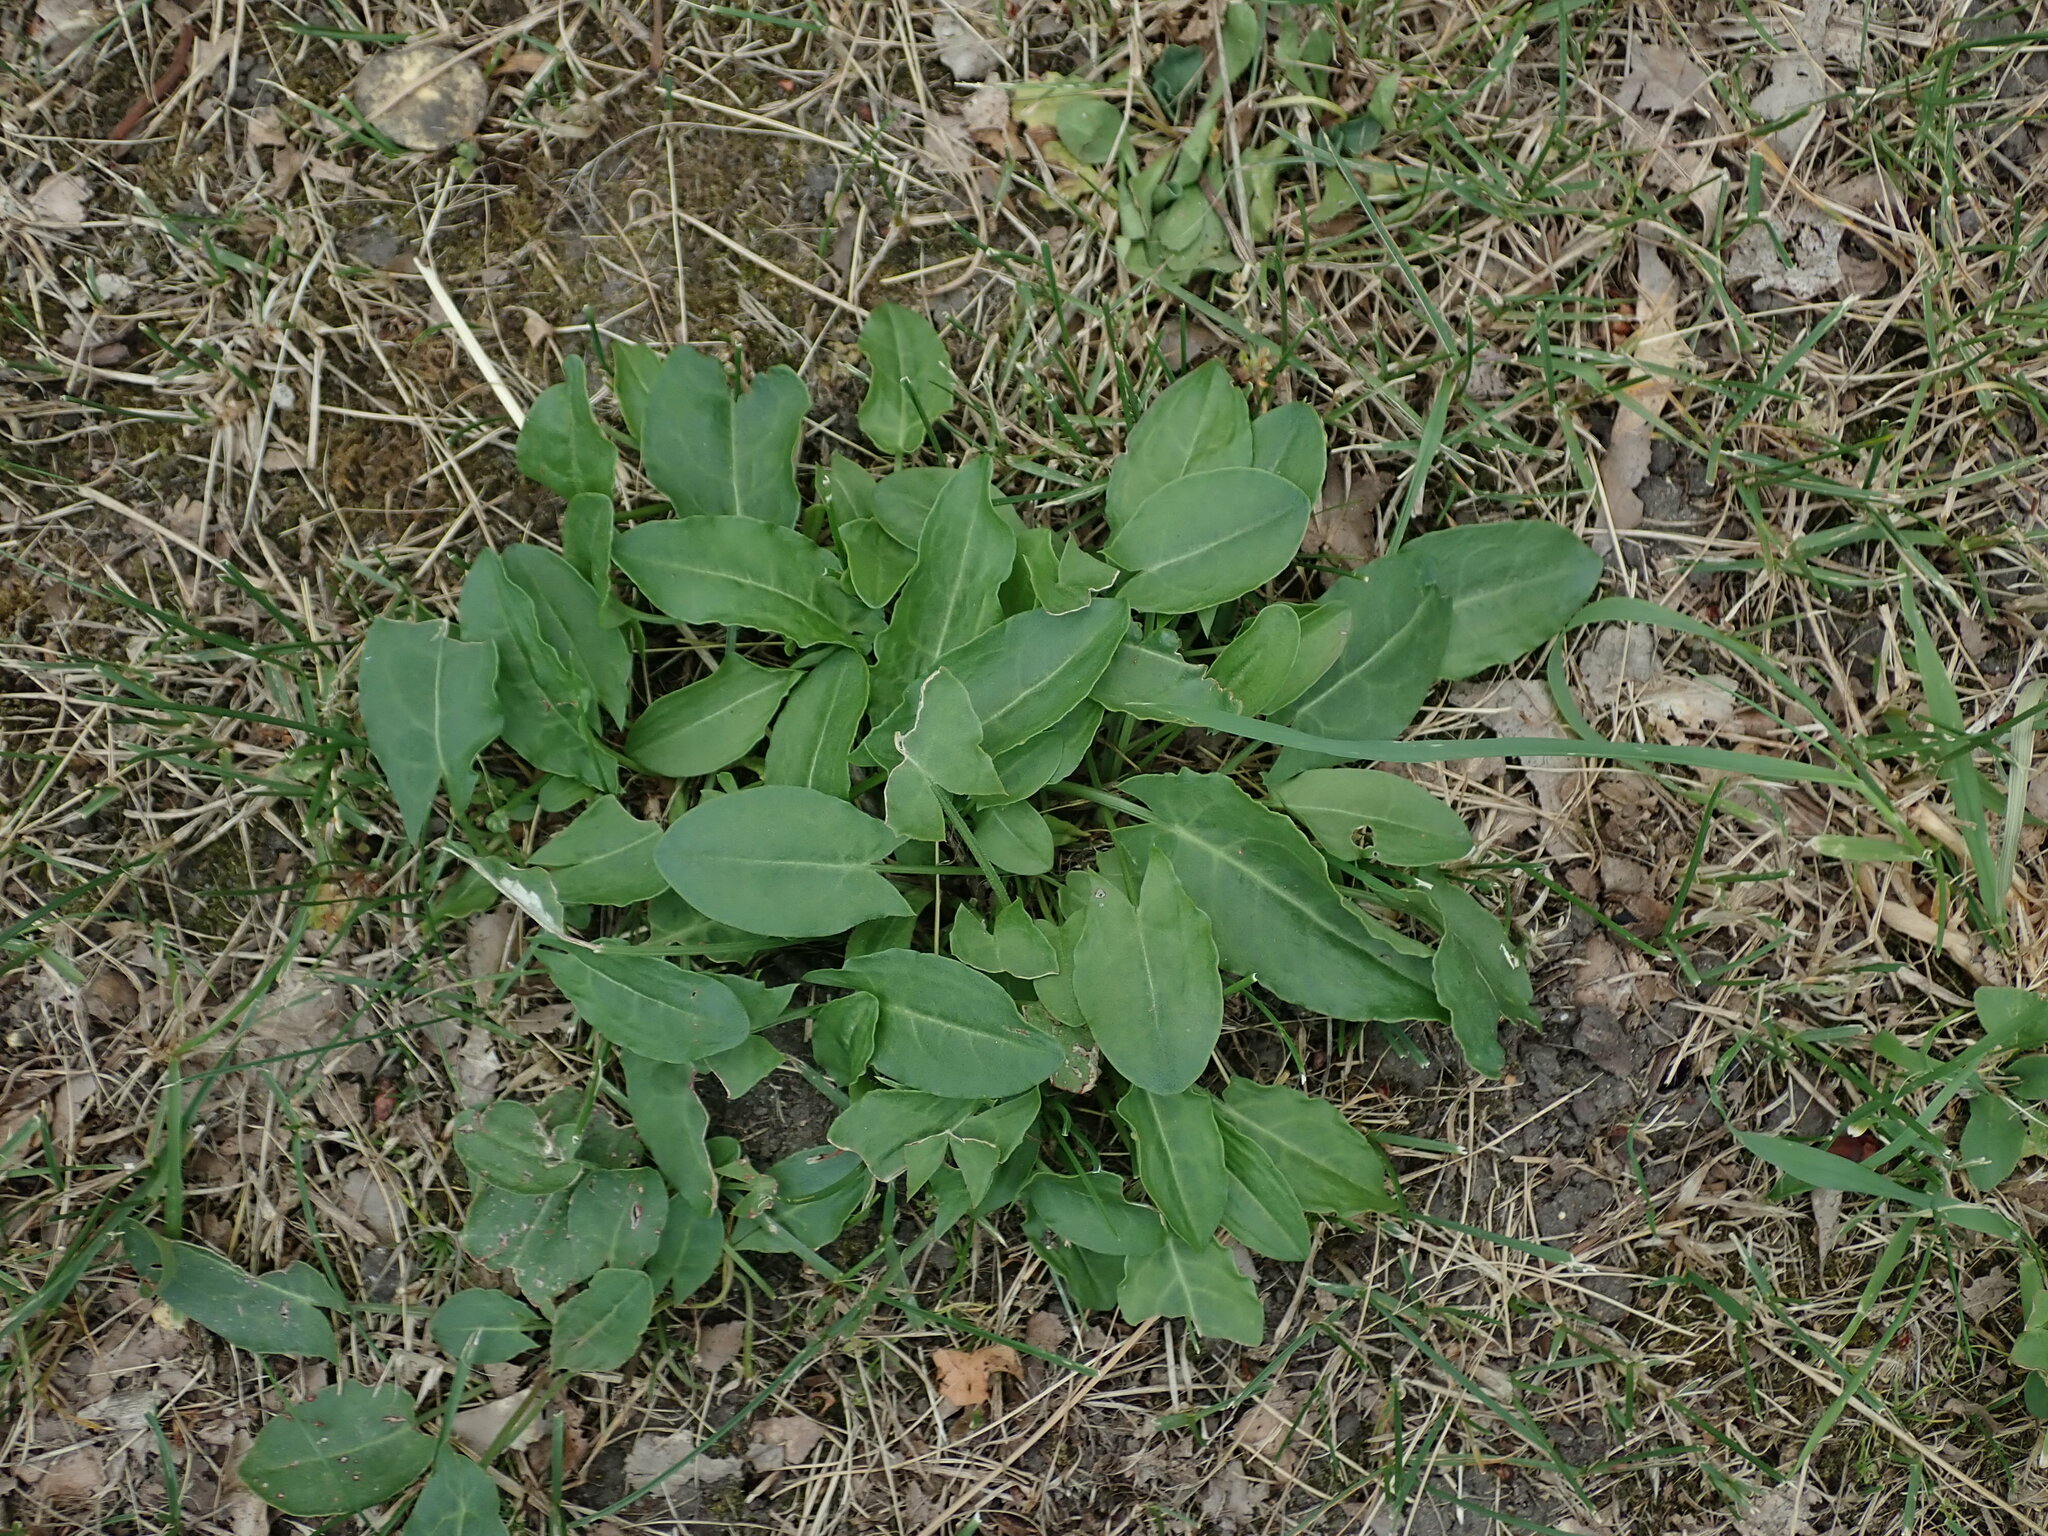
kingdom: Plantae
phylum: Tracheophyta
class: Magnoliopsida
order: Caryophyllales
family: Polygonaceae
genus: Rumex
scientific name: Rumex acetosa
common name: Garden sorrel
